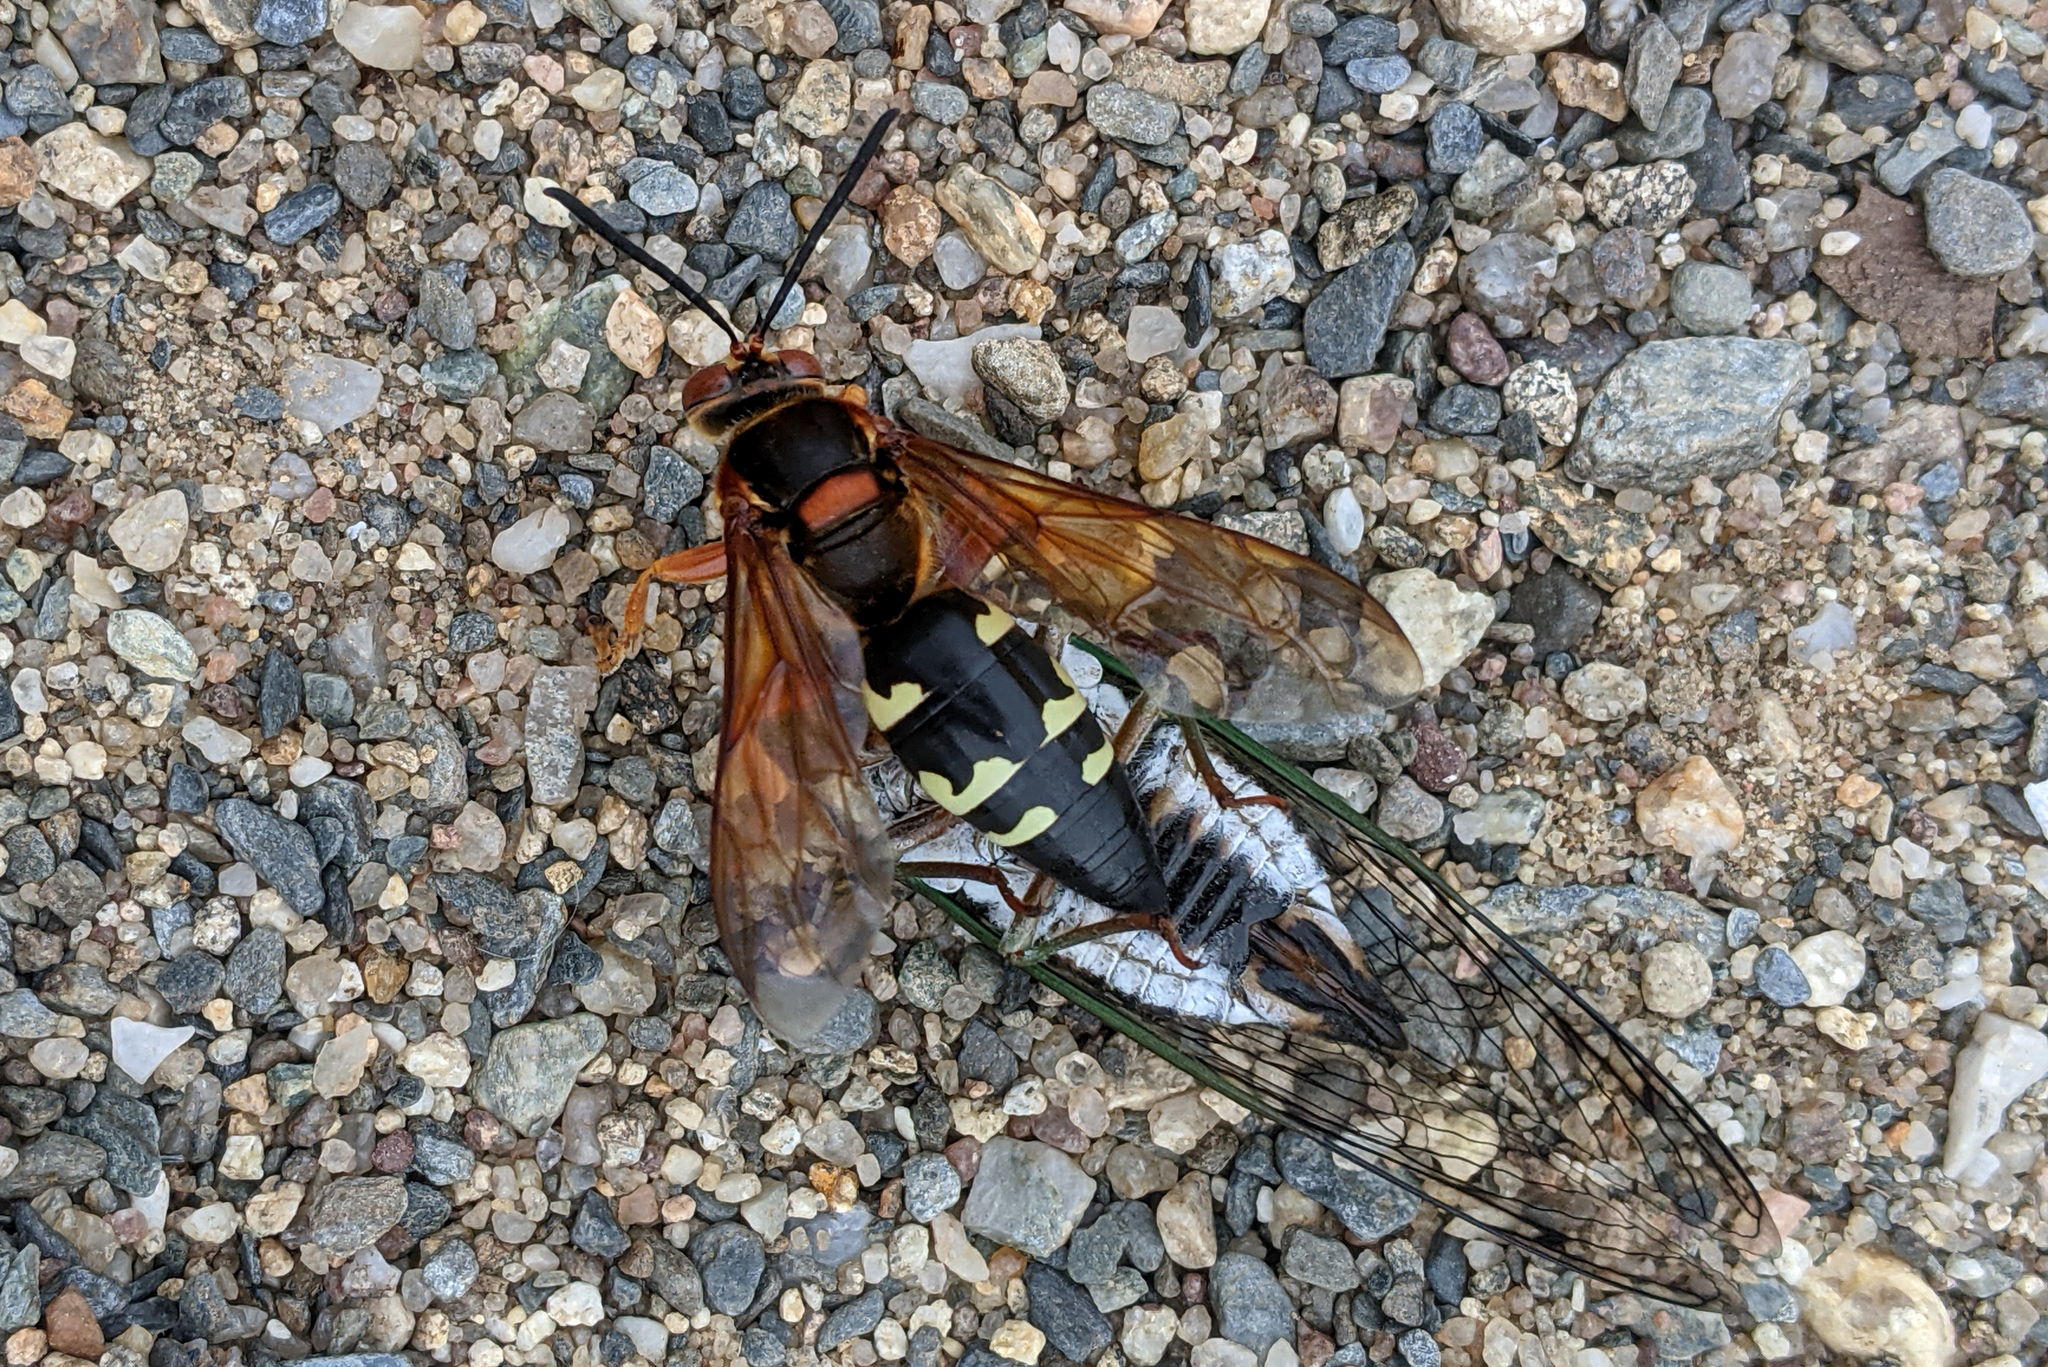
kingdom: Animalia
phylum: Arthropoda
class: Insecta
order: Hymenoptera
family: Crabronidae
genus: Sphecius
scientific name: Sphecius speciosus
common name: Cicada killer
